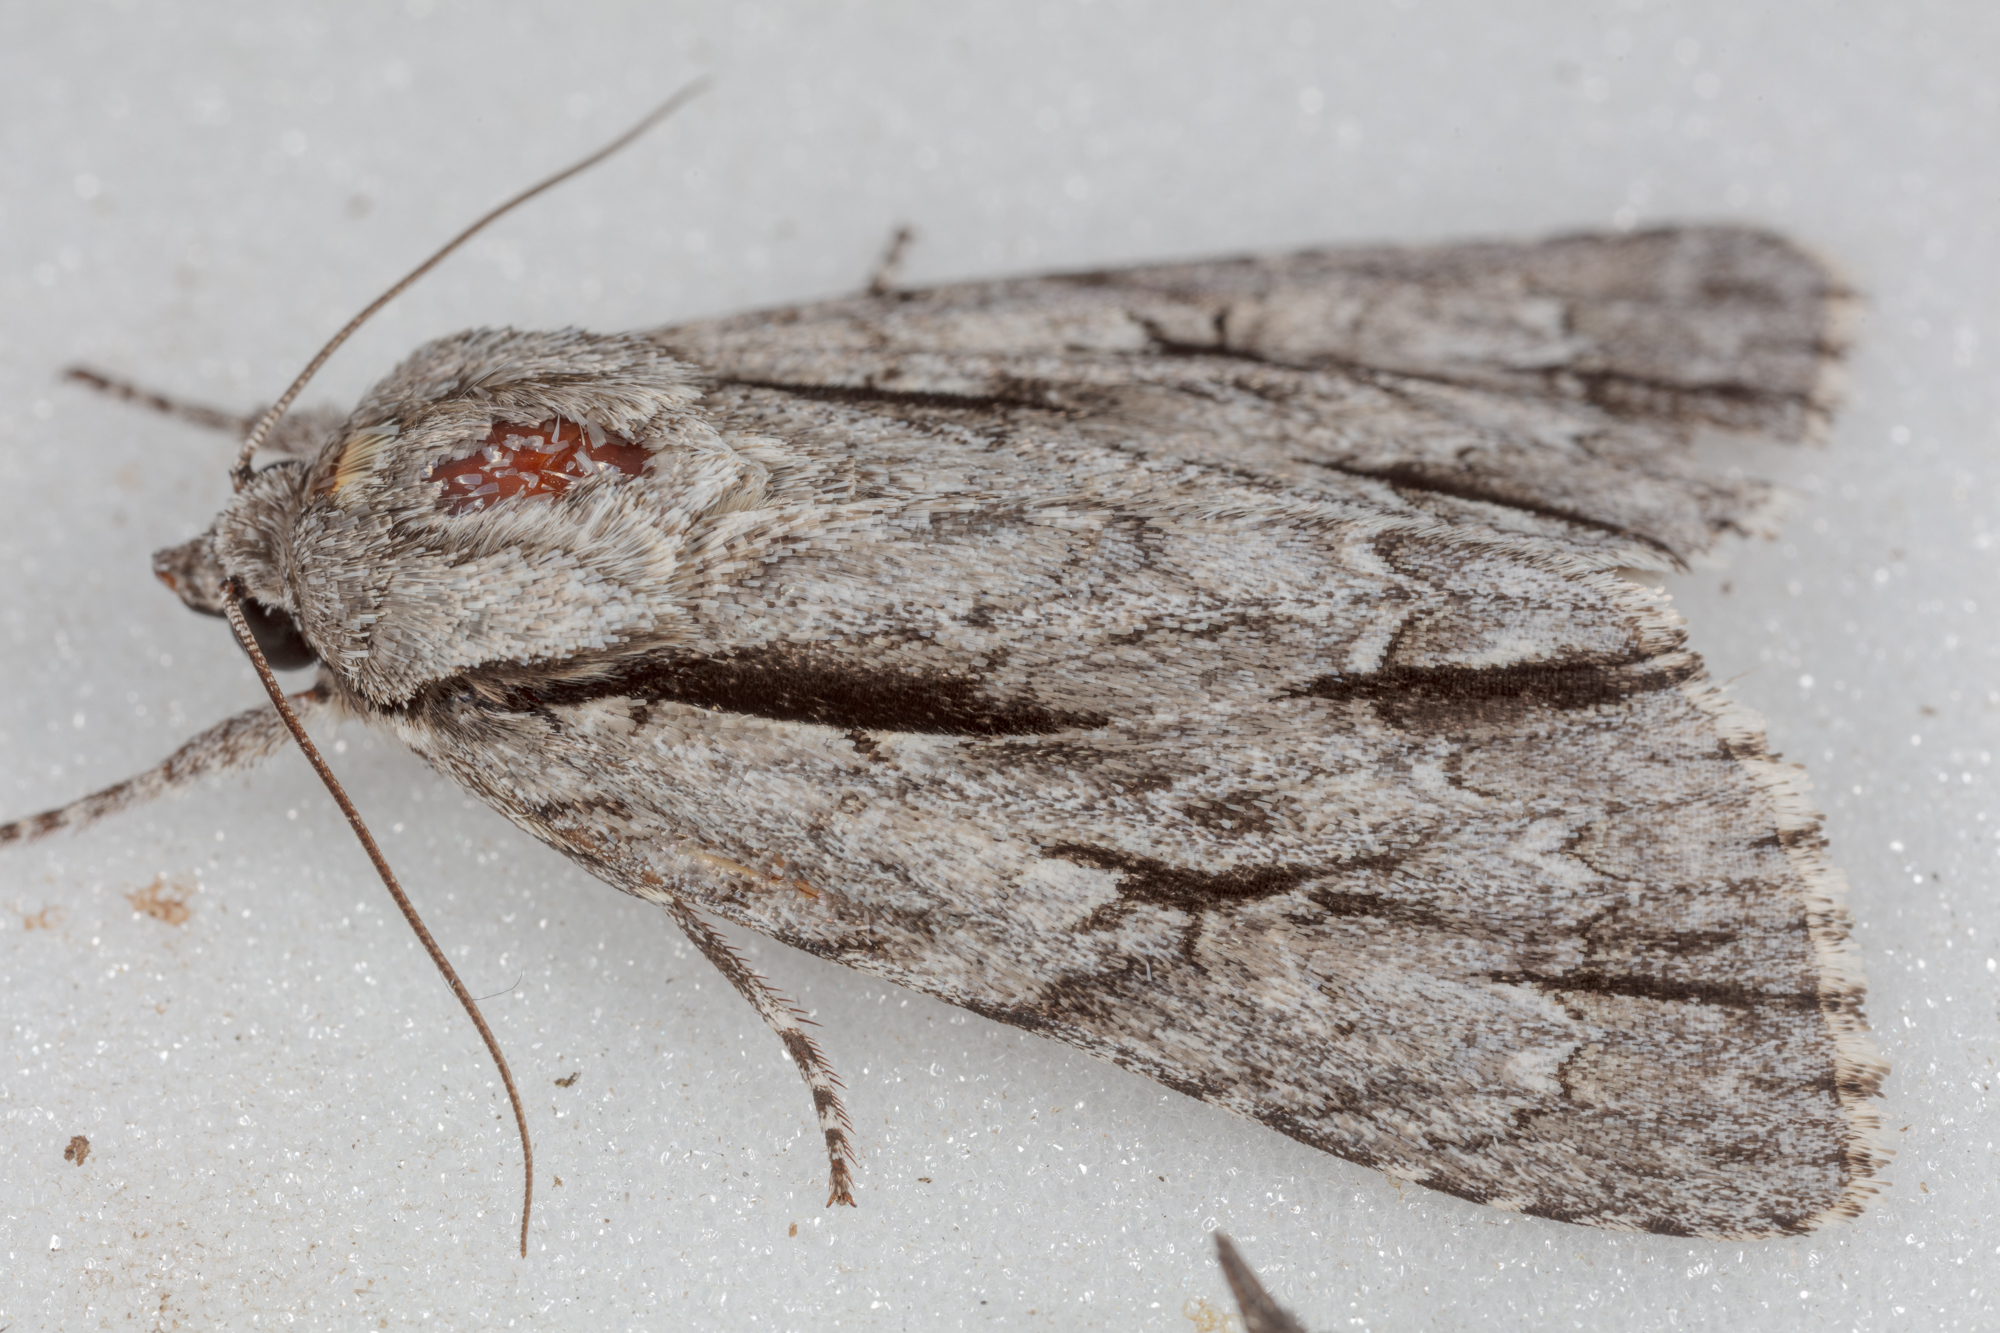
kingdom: Animalia
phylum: Arthropoda
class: Insecta
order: Lepidoptera
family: Noctuidae
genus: Acronicta
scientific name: Acronicta
